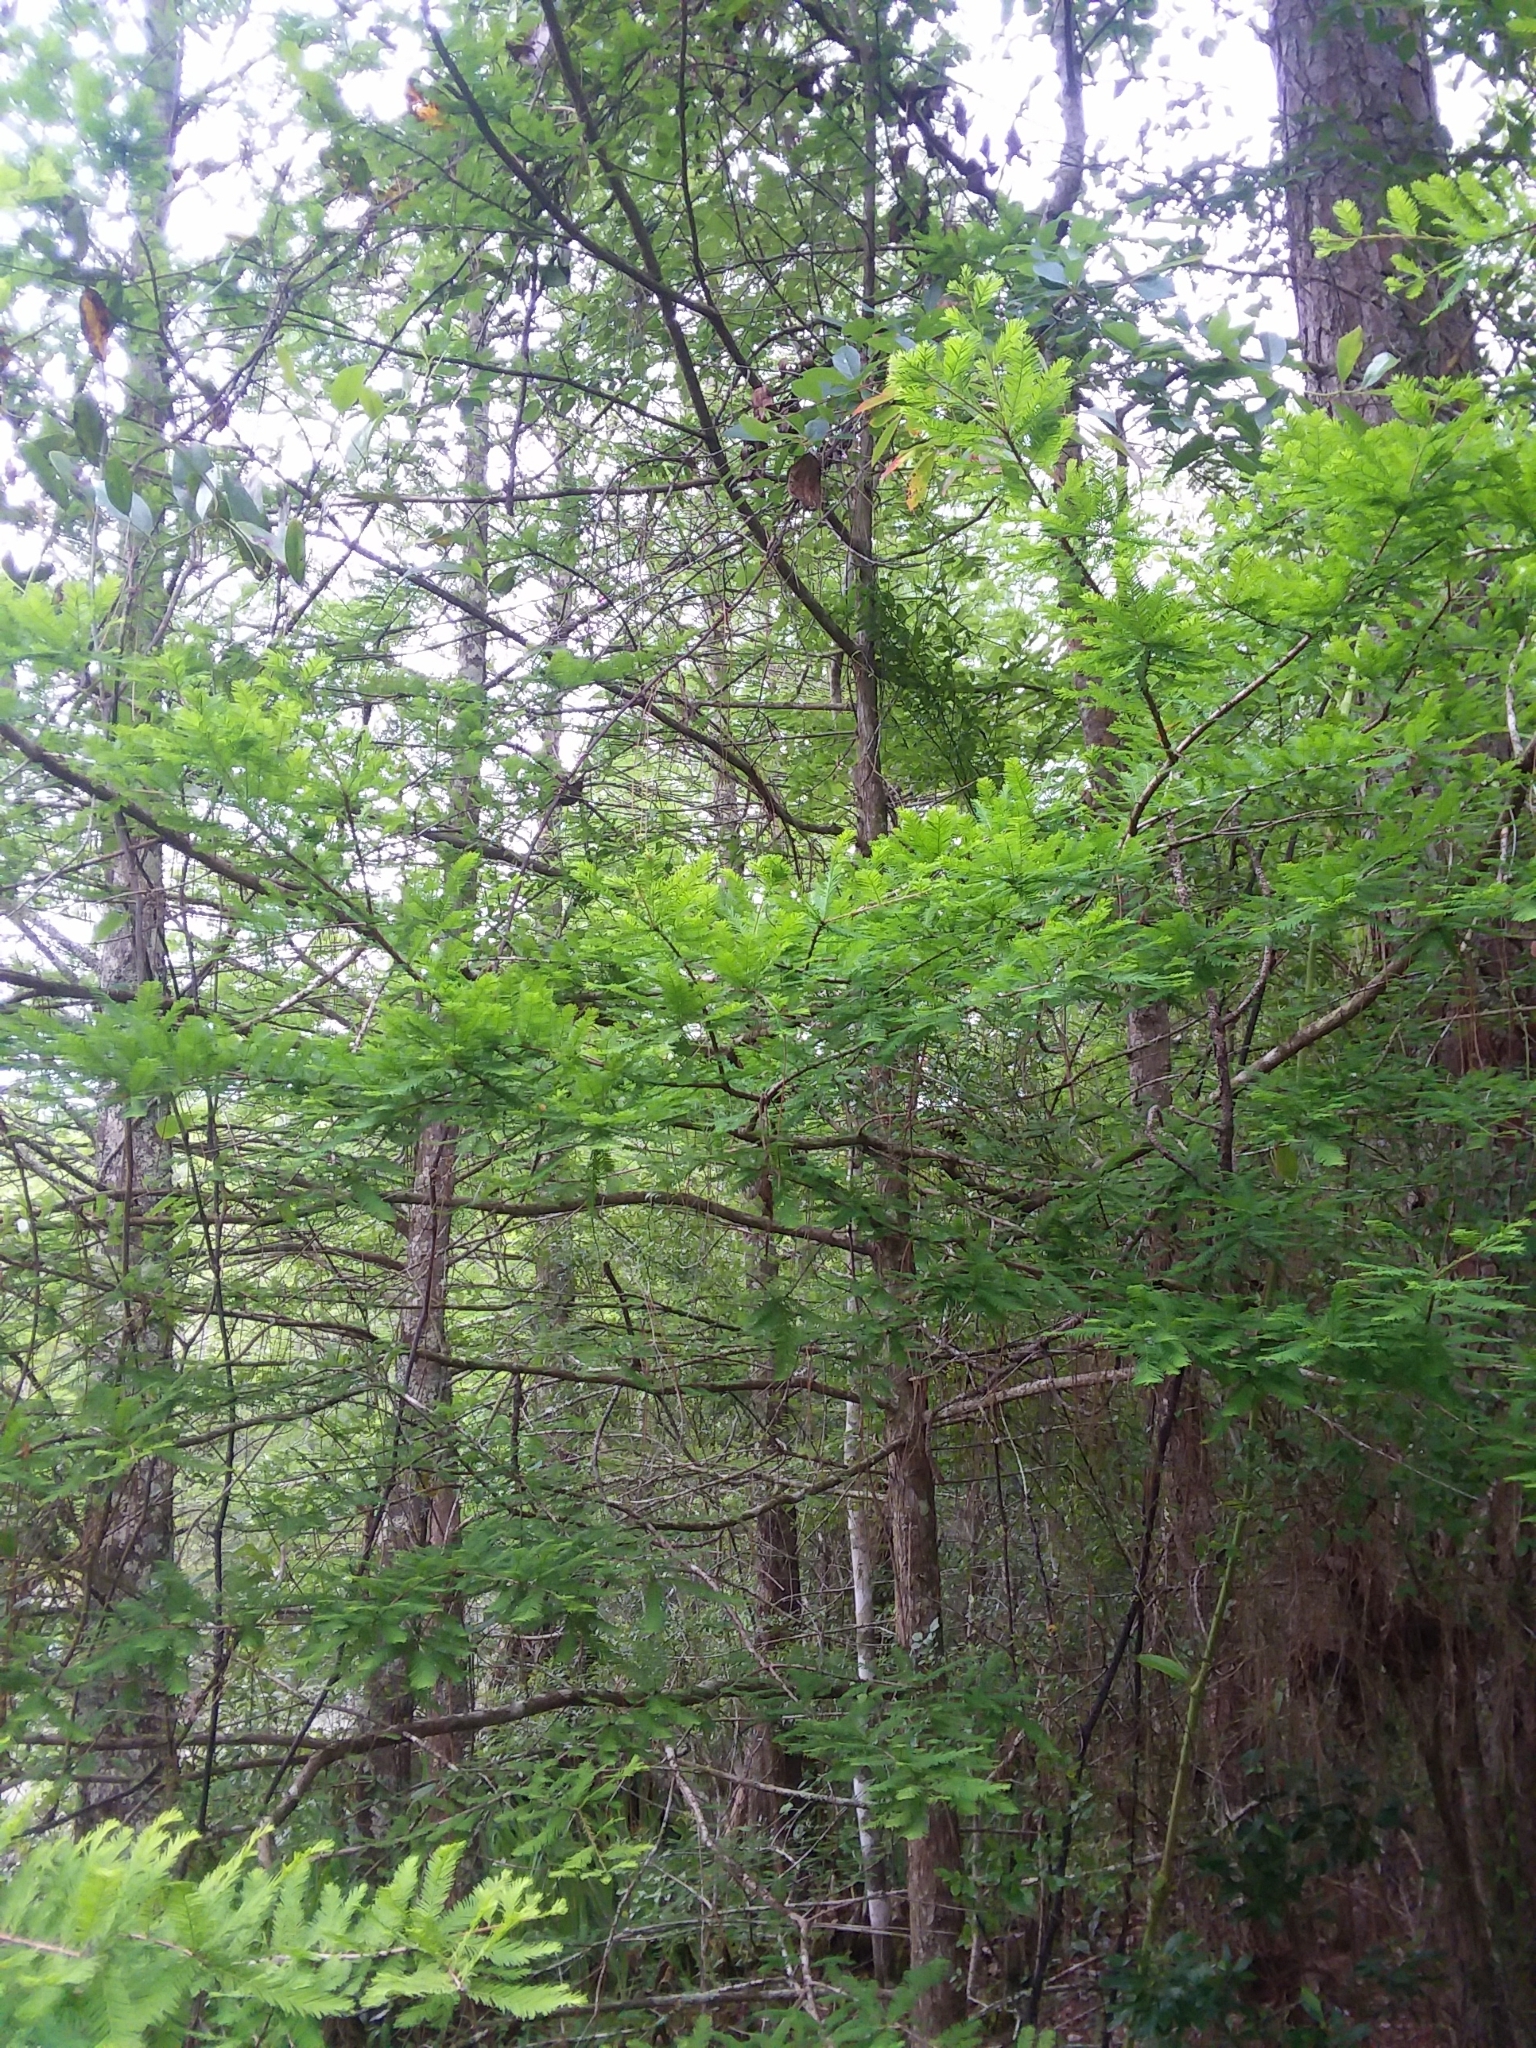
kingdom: Plantae
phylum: Tracheophyta
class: Pinopsida
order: Pinales
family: Cupressaceae
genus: Taxodium
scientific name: Taxodium distichum
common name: Bald cypress
